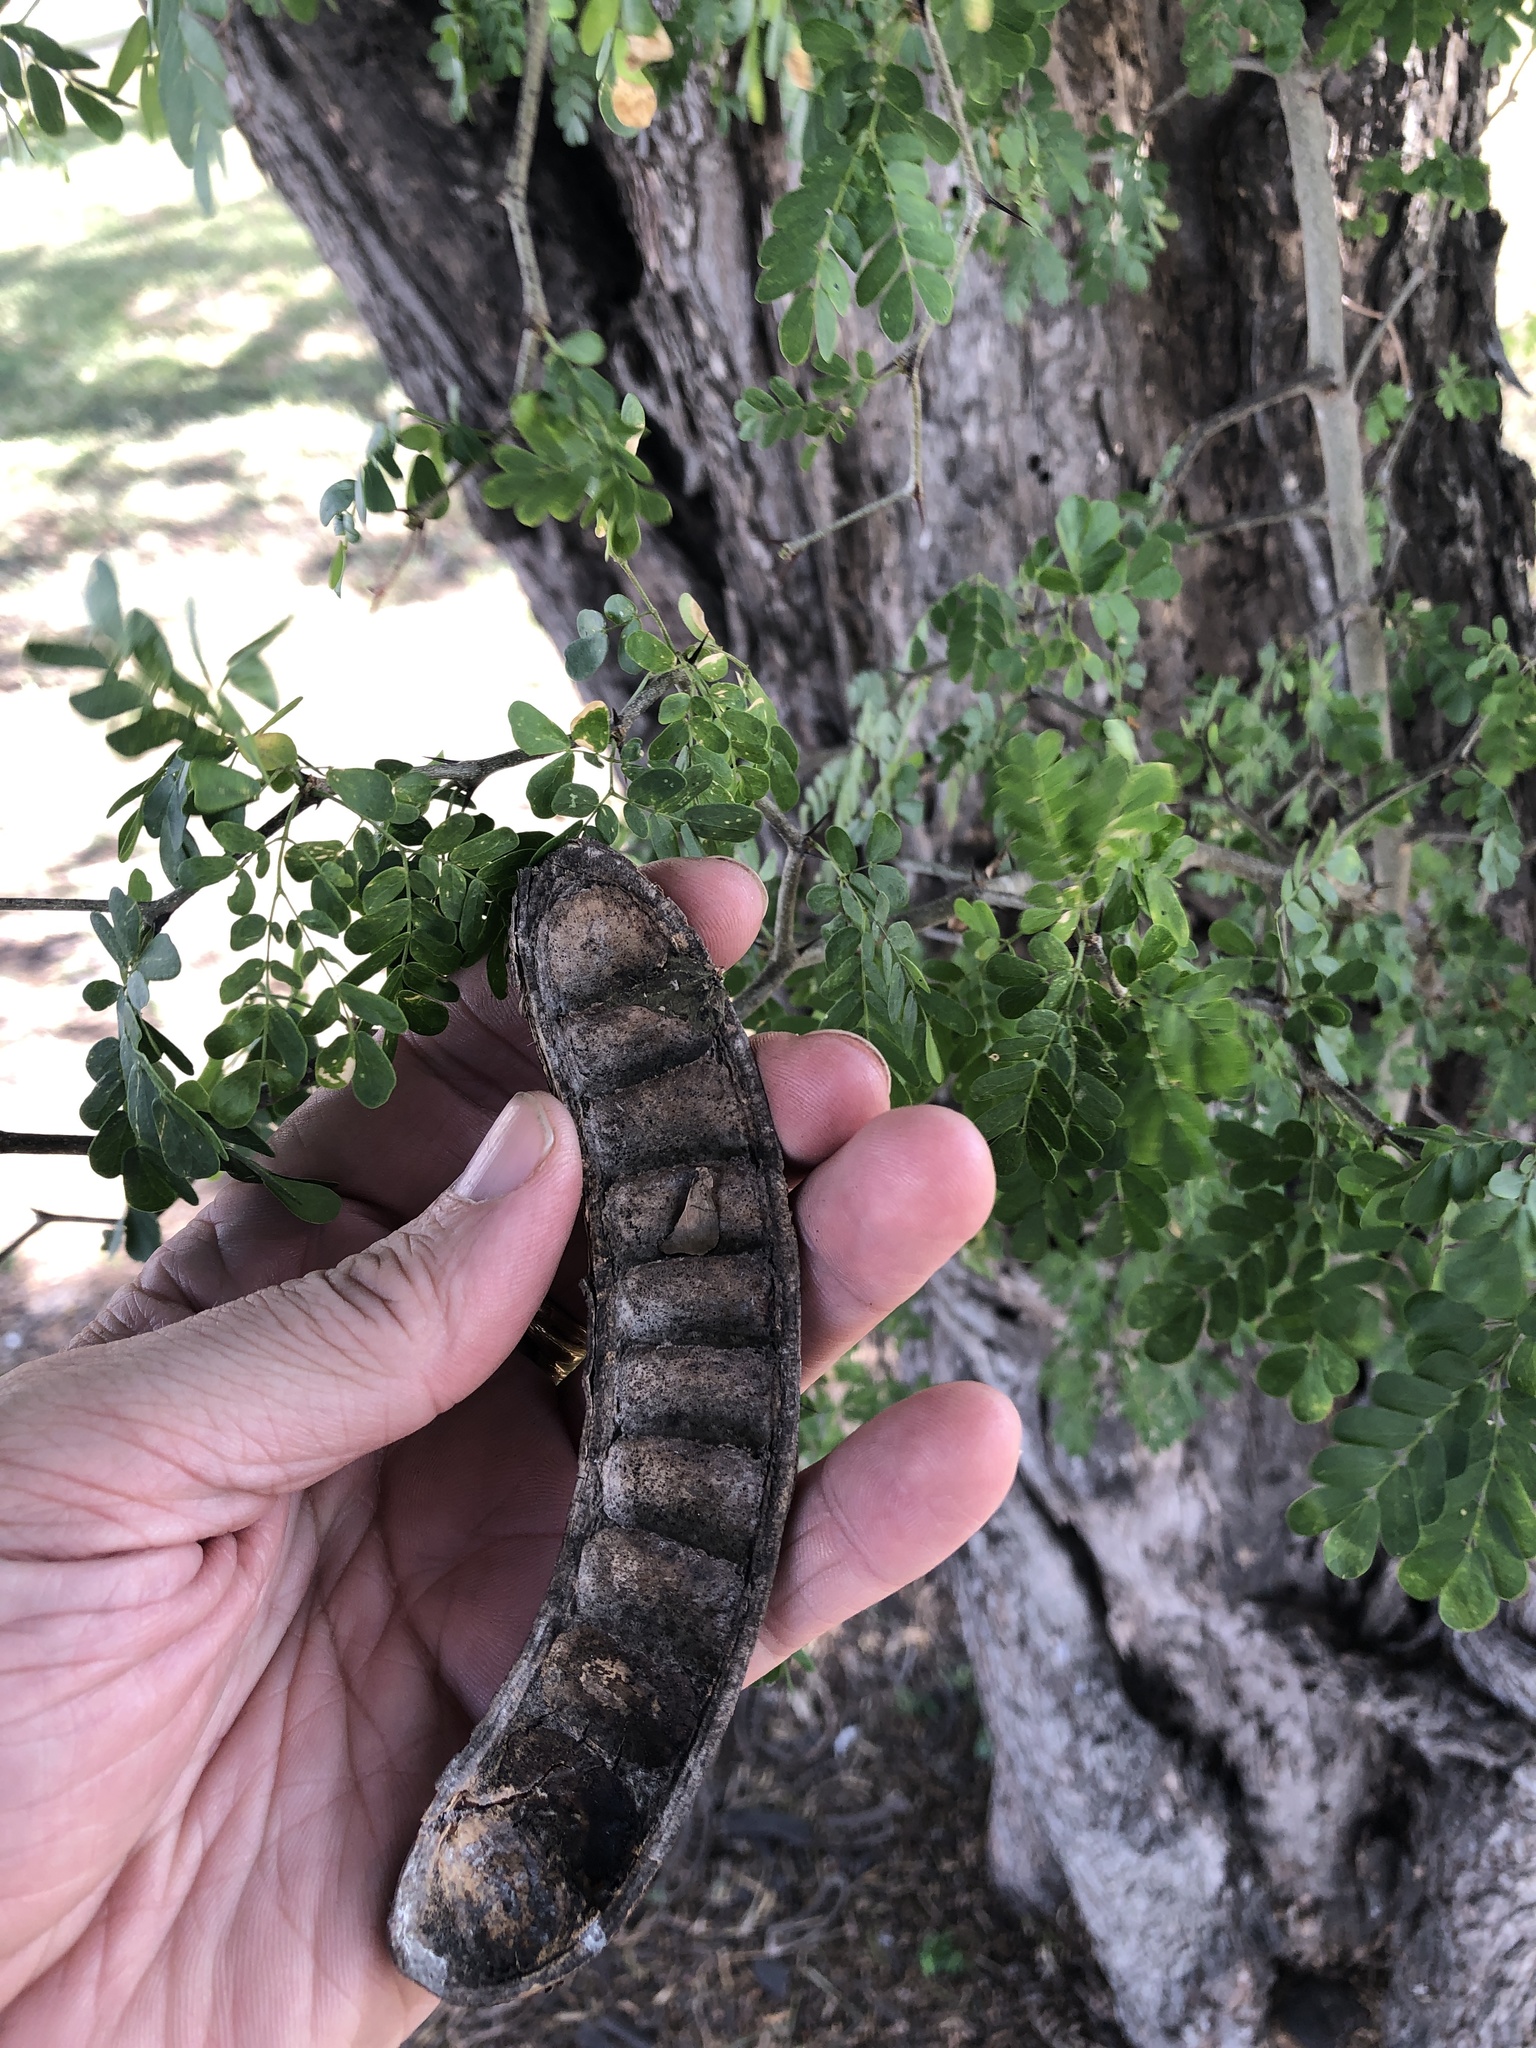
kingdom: Plantae
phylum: Tracheophyta
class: Magnoliopsida
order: Fabales
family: Fabaceae
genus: Ebenopsis
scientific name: Ebenopsis ebano
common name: Ebony blackbead
